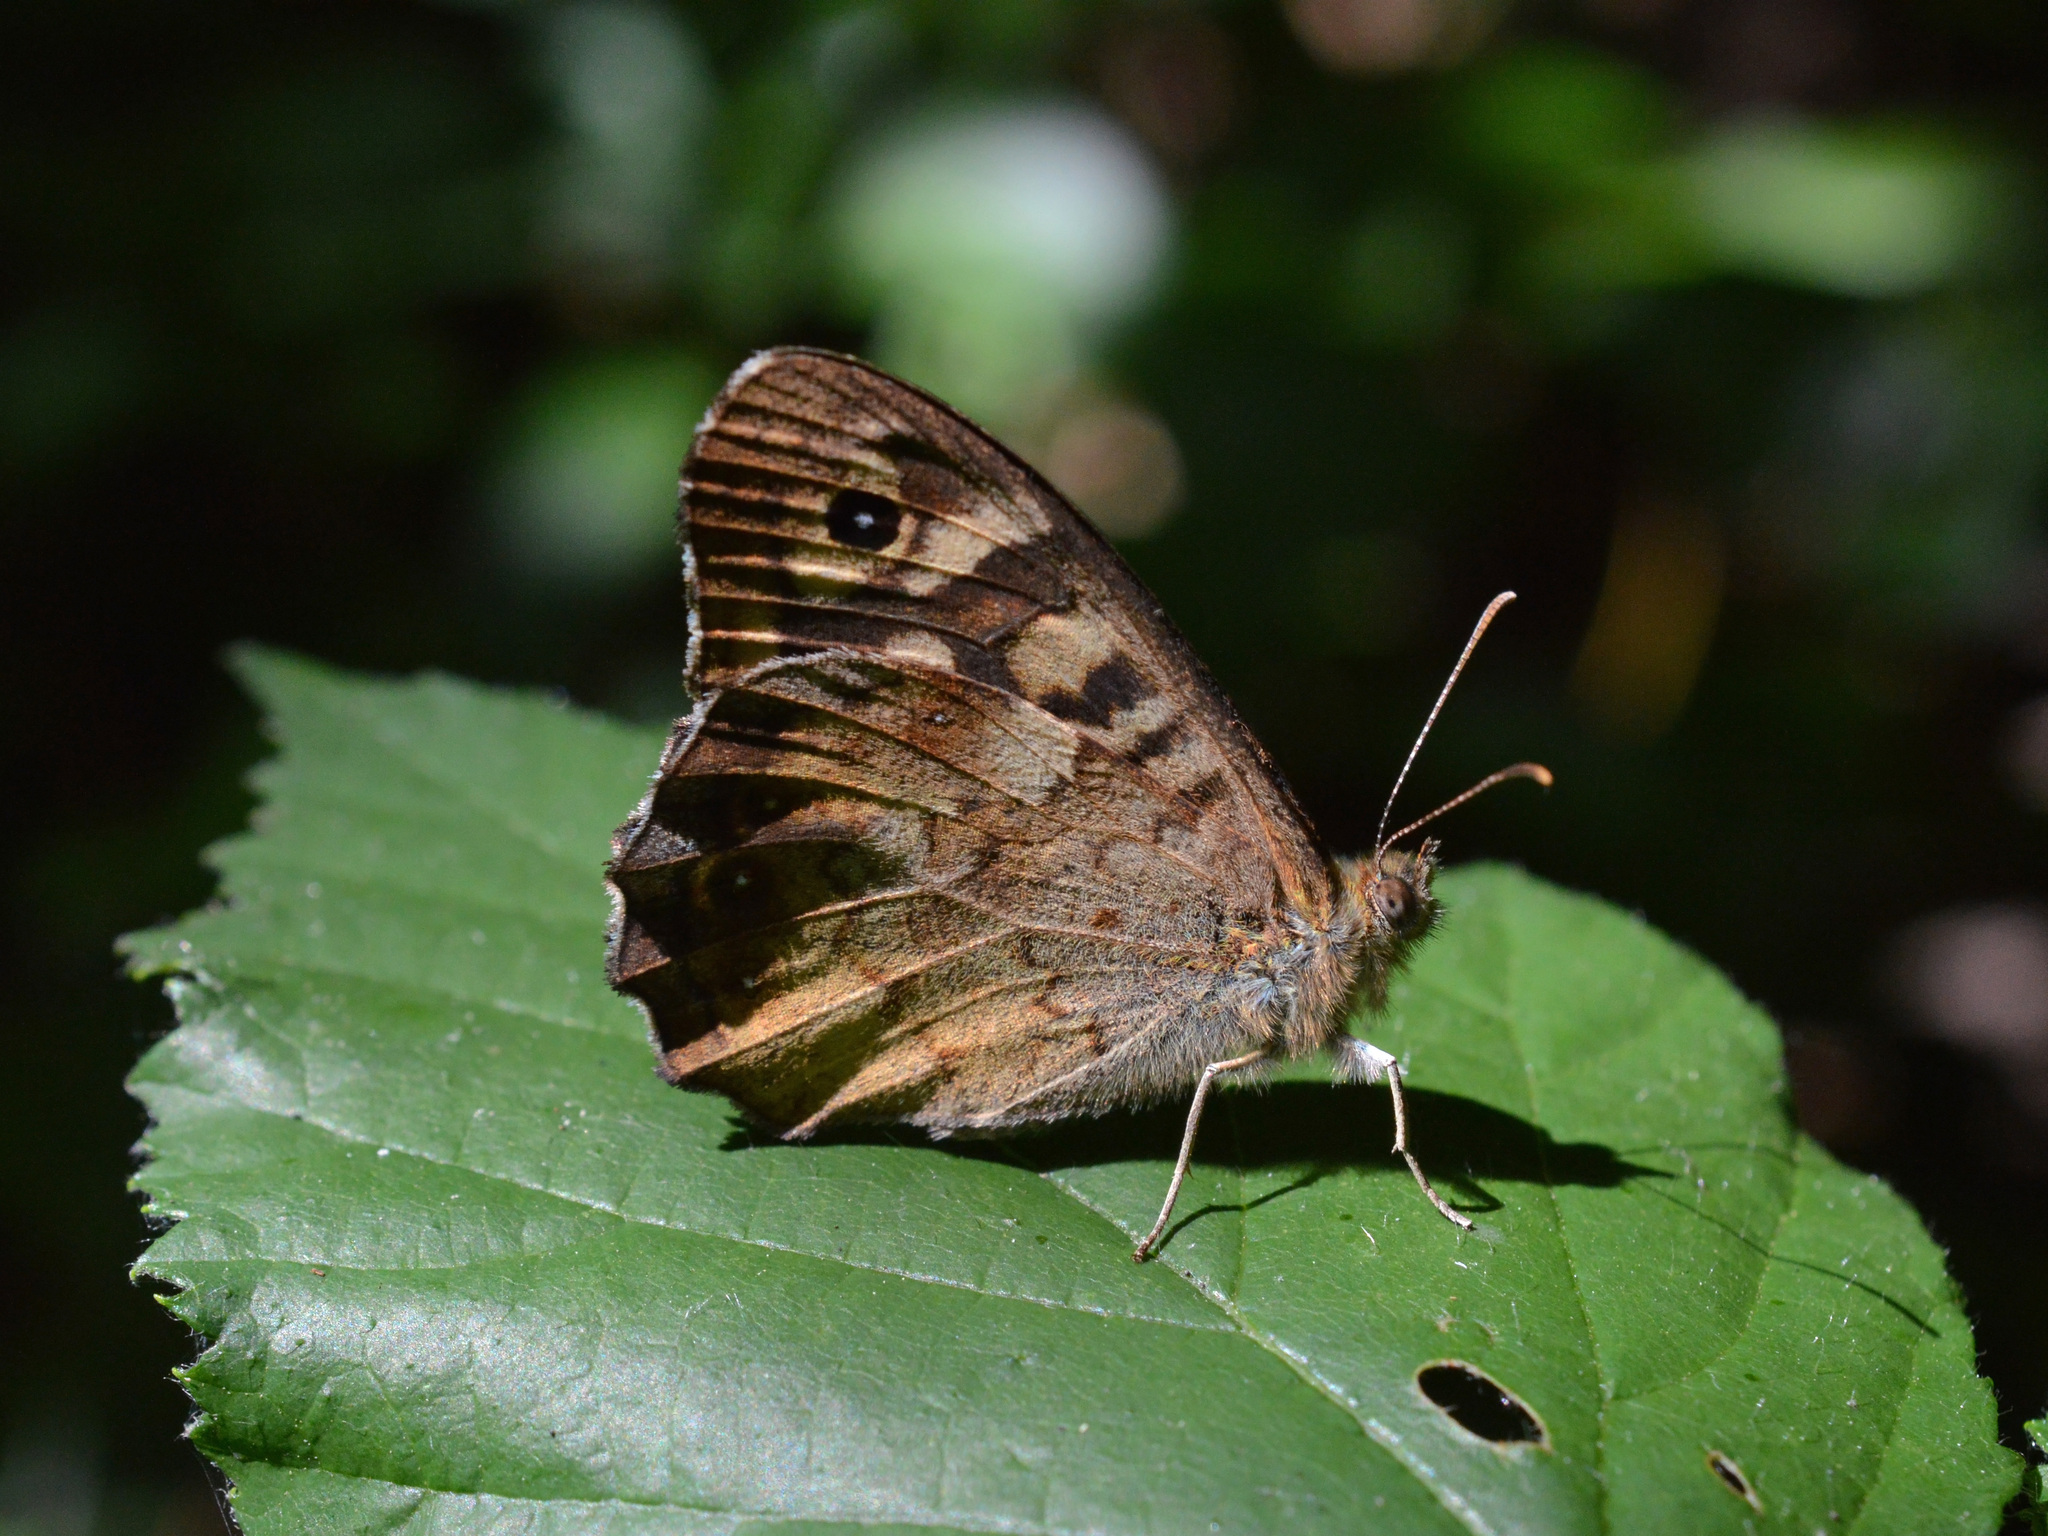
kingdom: Animalia
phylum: Arthropoda
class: Insecta
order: Lepidoptera
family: Nymphalidae
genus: Pararge
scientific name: Pararge aegeria
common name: Speckled wood
